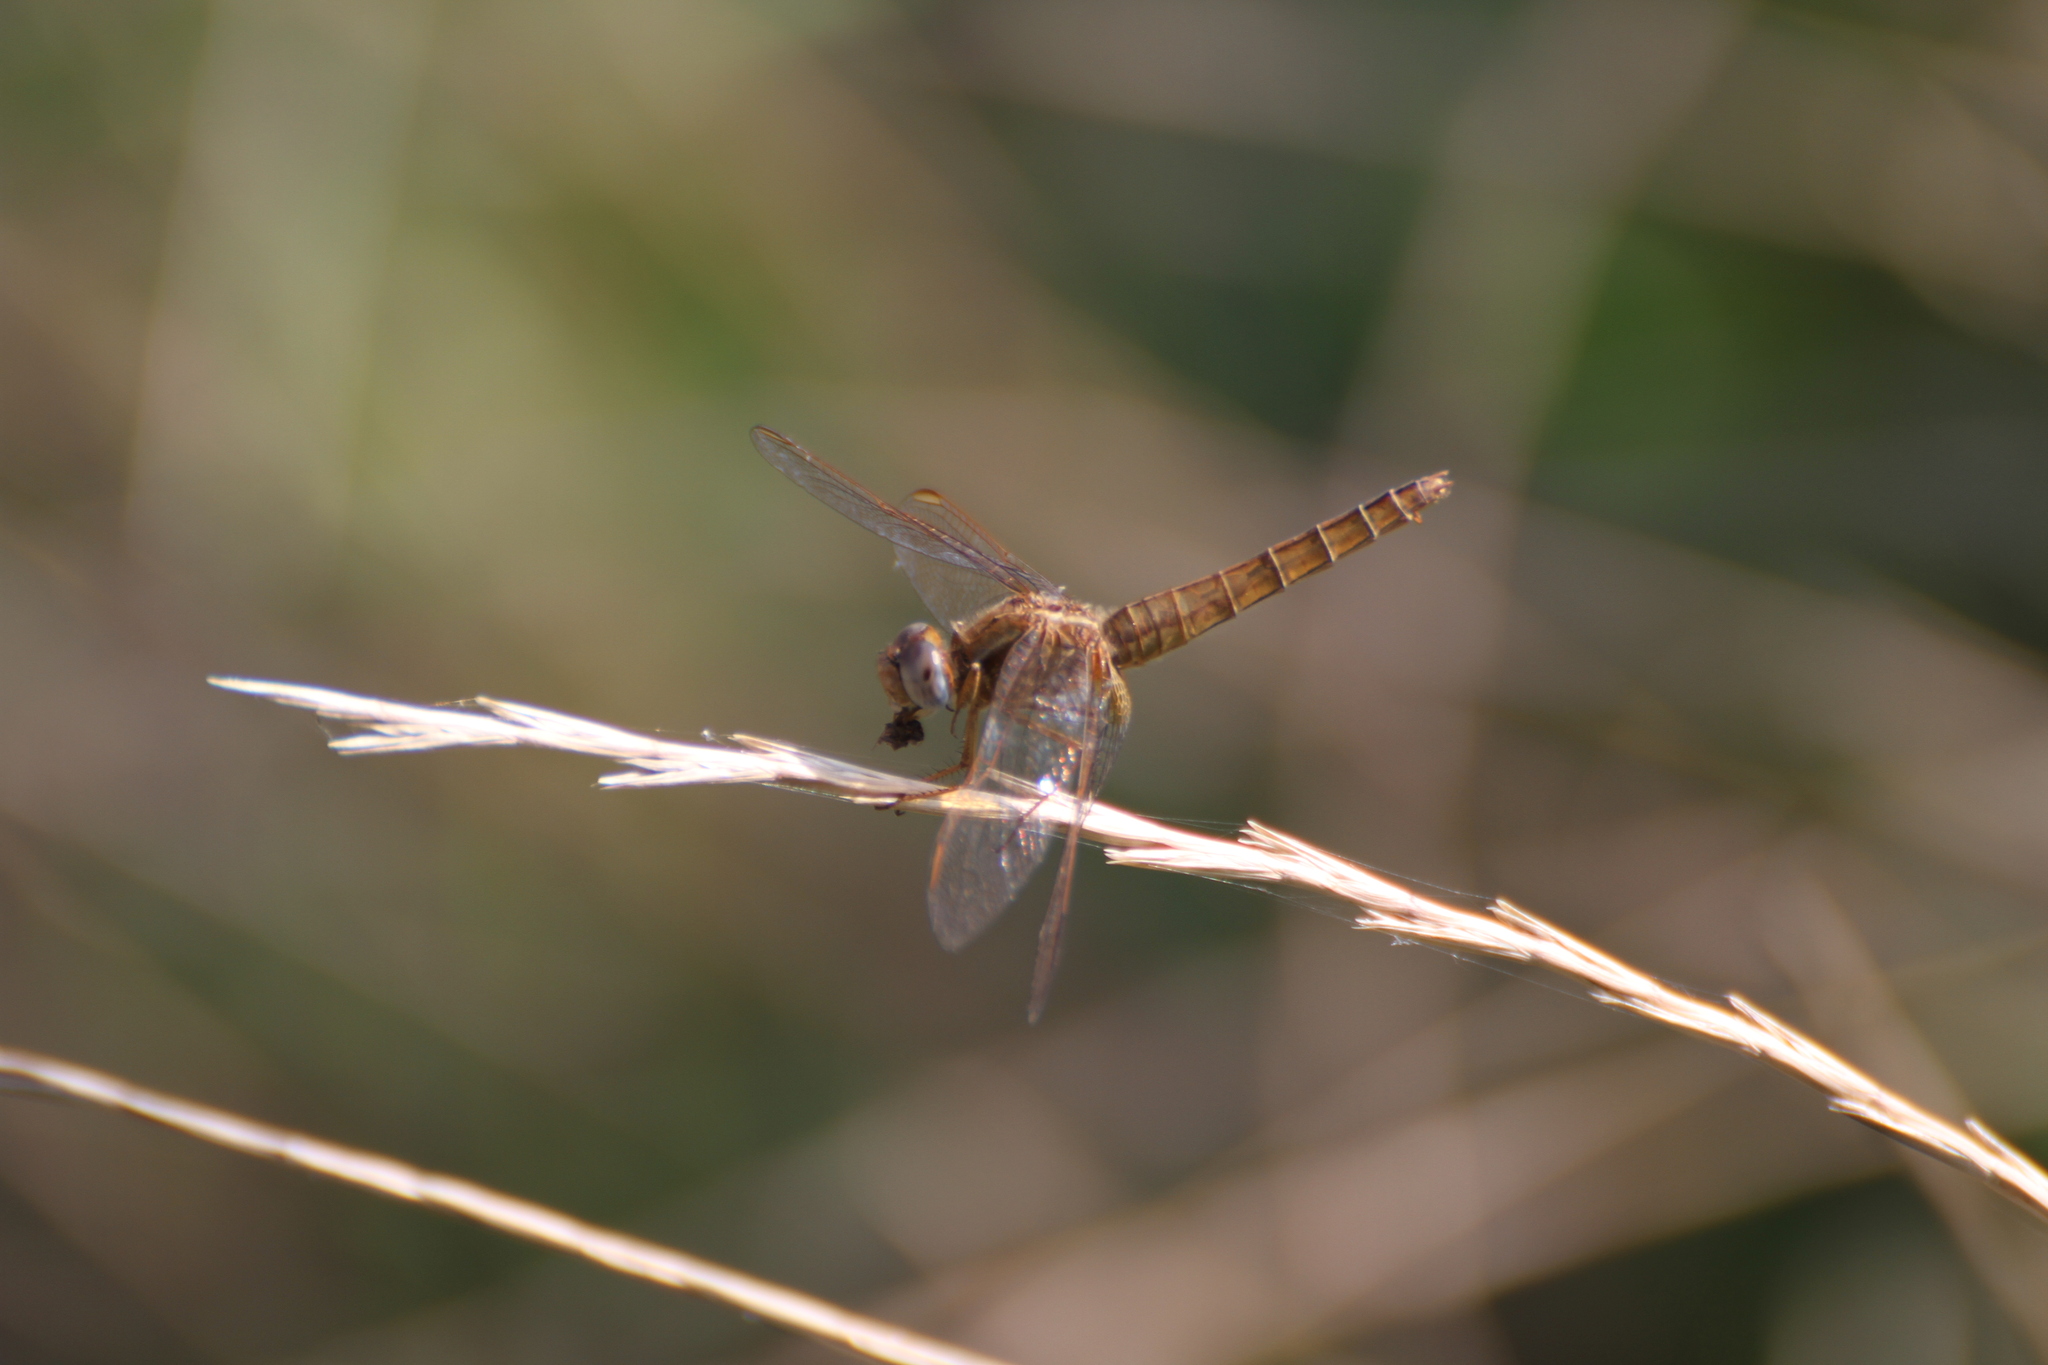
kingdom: Animalia
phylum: Arthropoda
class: Insecta
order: Odonata
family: Libellulidae
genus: Crocothemis
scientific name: Crocothemis erythraea
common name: Scarlet dragonfly
